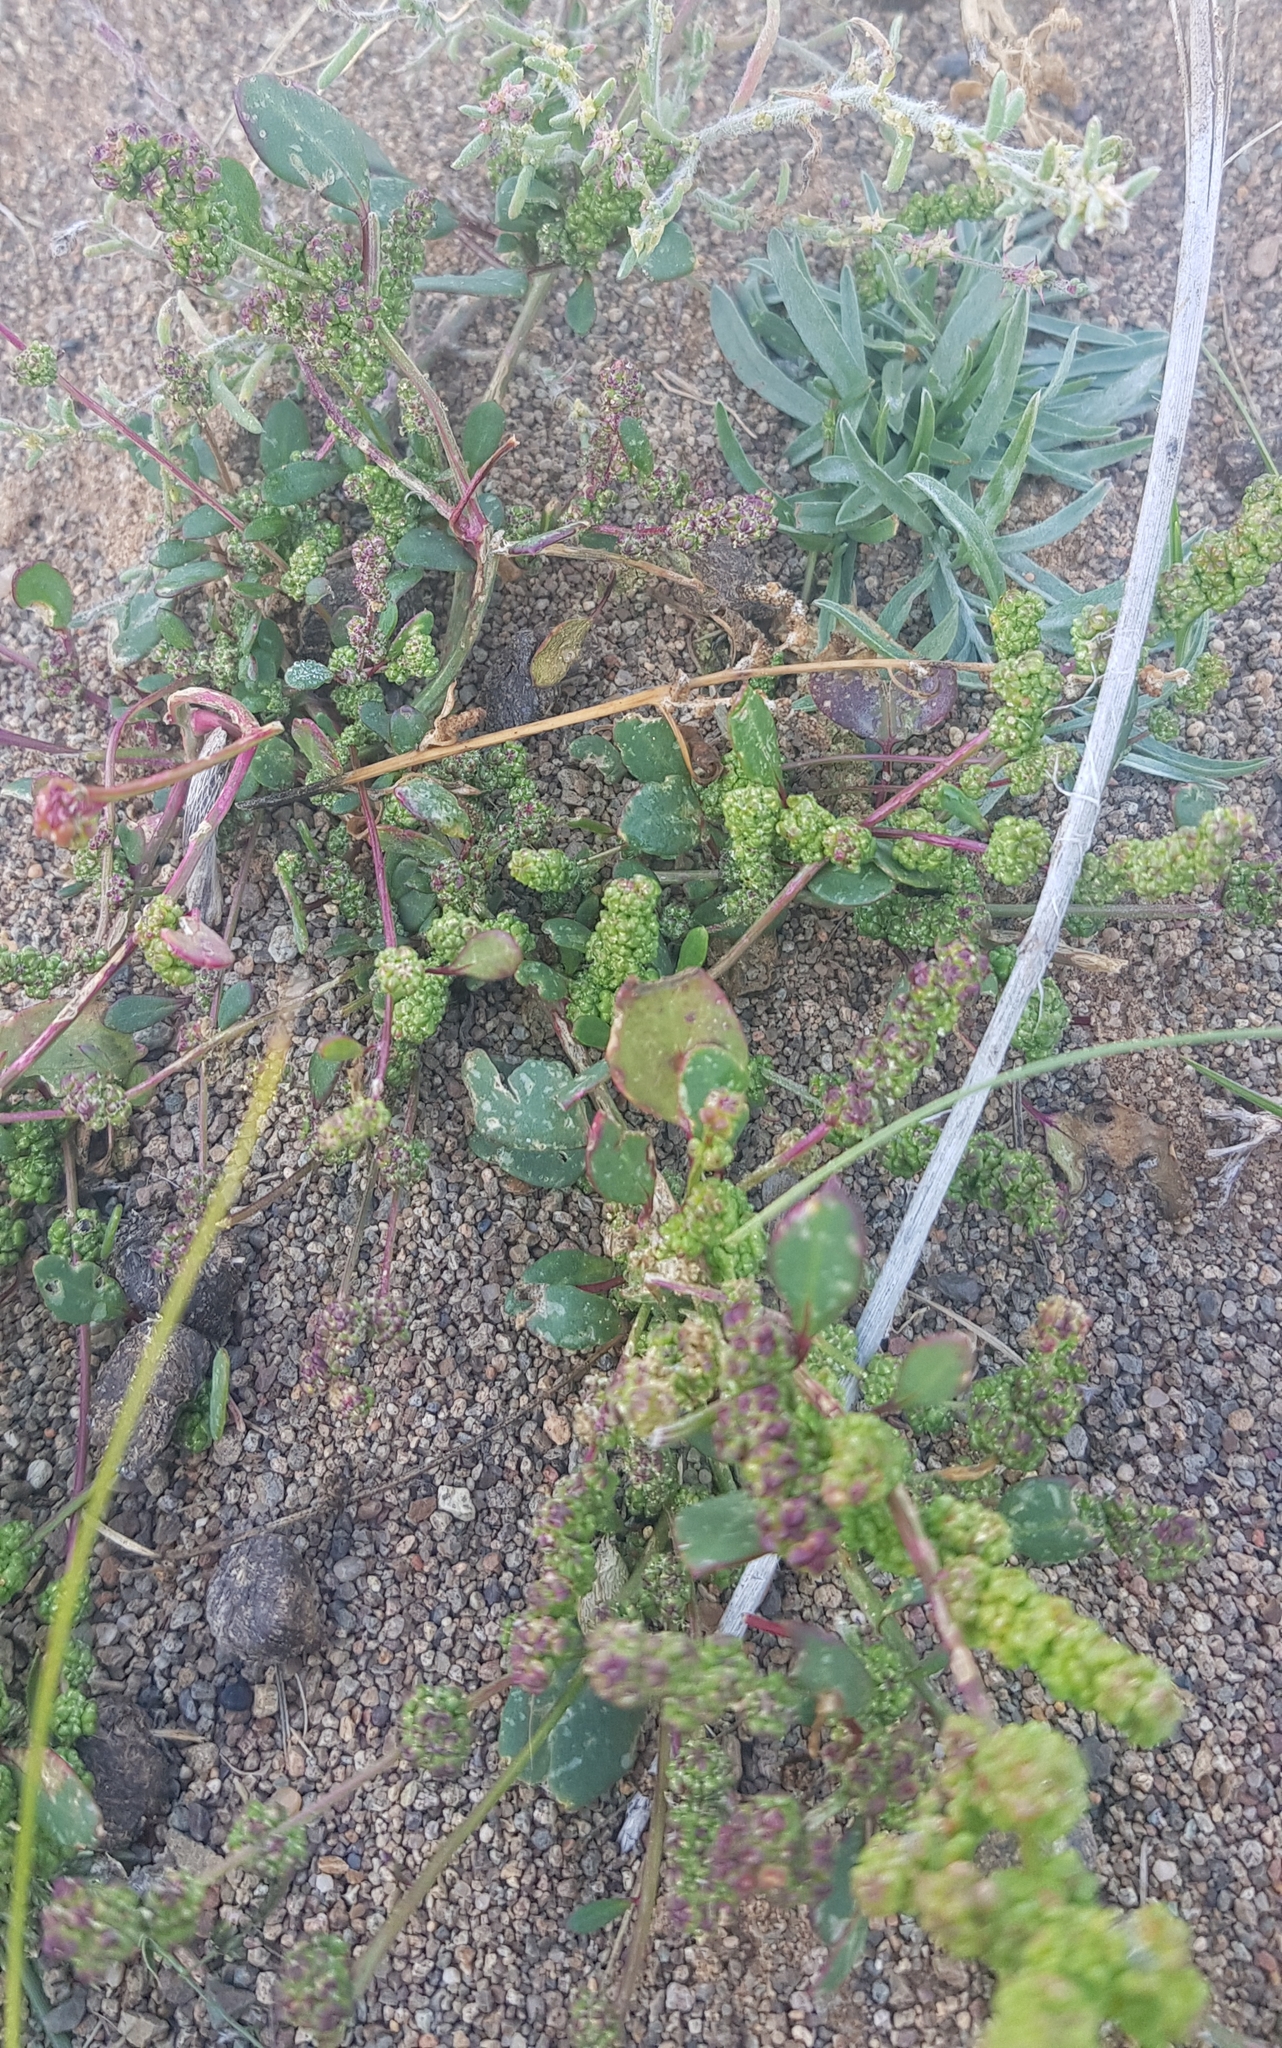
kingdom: Plantae
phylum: Tracheophyta
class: Magnoliopsida
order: Caryophyllales
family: Amaranthaceae
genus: Chenopodium
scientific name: Chenopodium acuminatum
